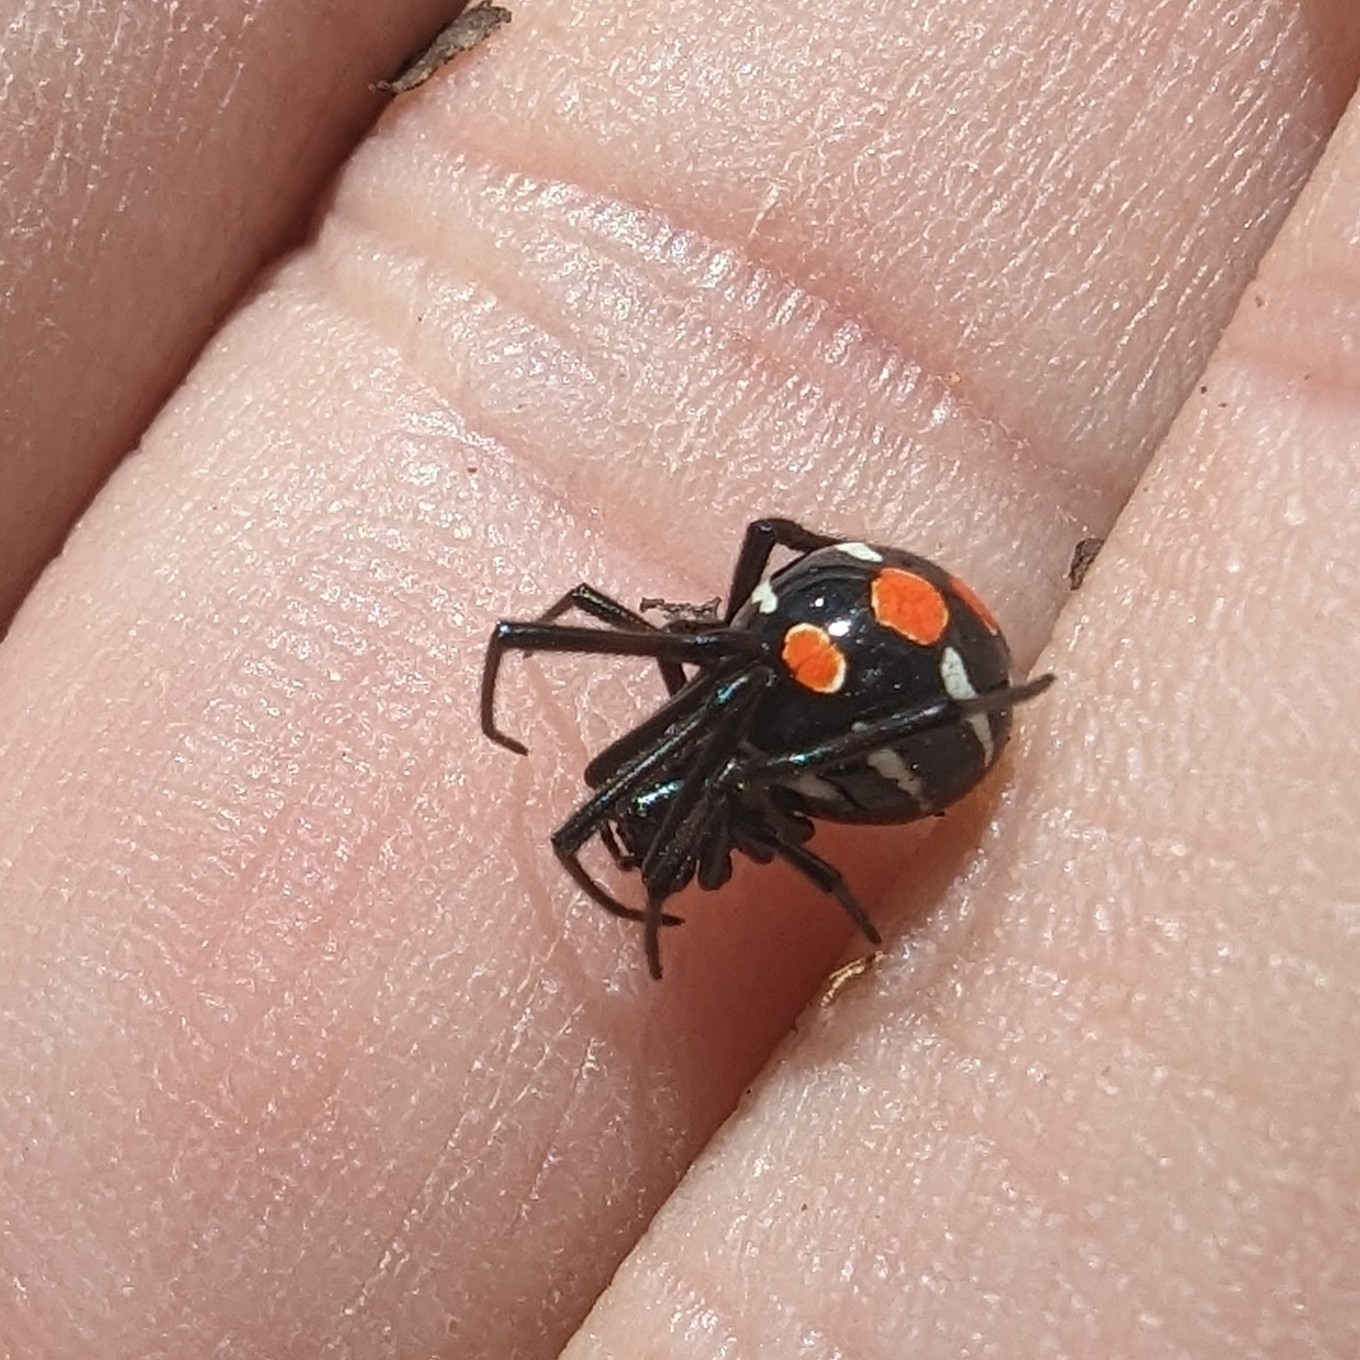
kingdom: Animalia
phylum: Arthropoda
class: Arachnida
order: Araneae
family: Theridiidae
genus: Latrodectus
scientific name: Latrodectus variolus
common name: Northern black widow
